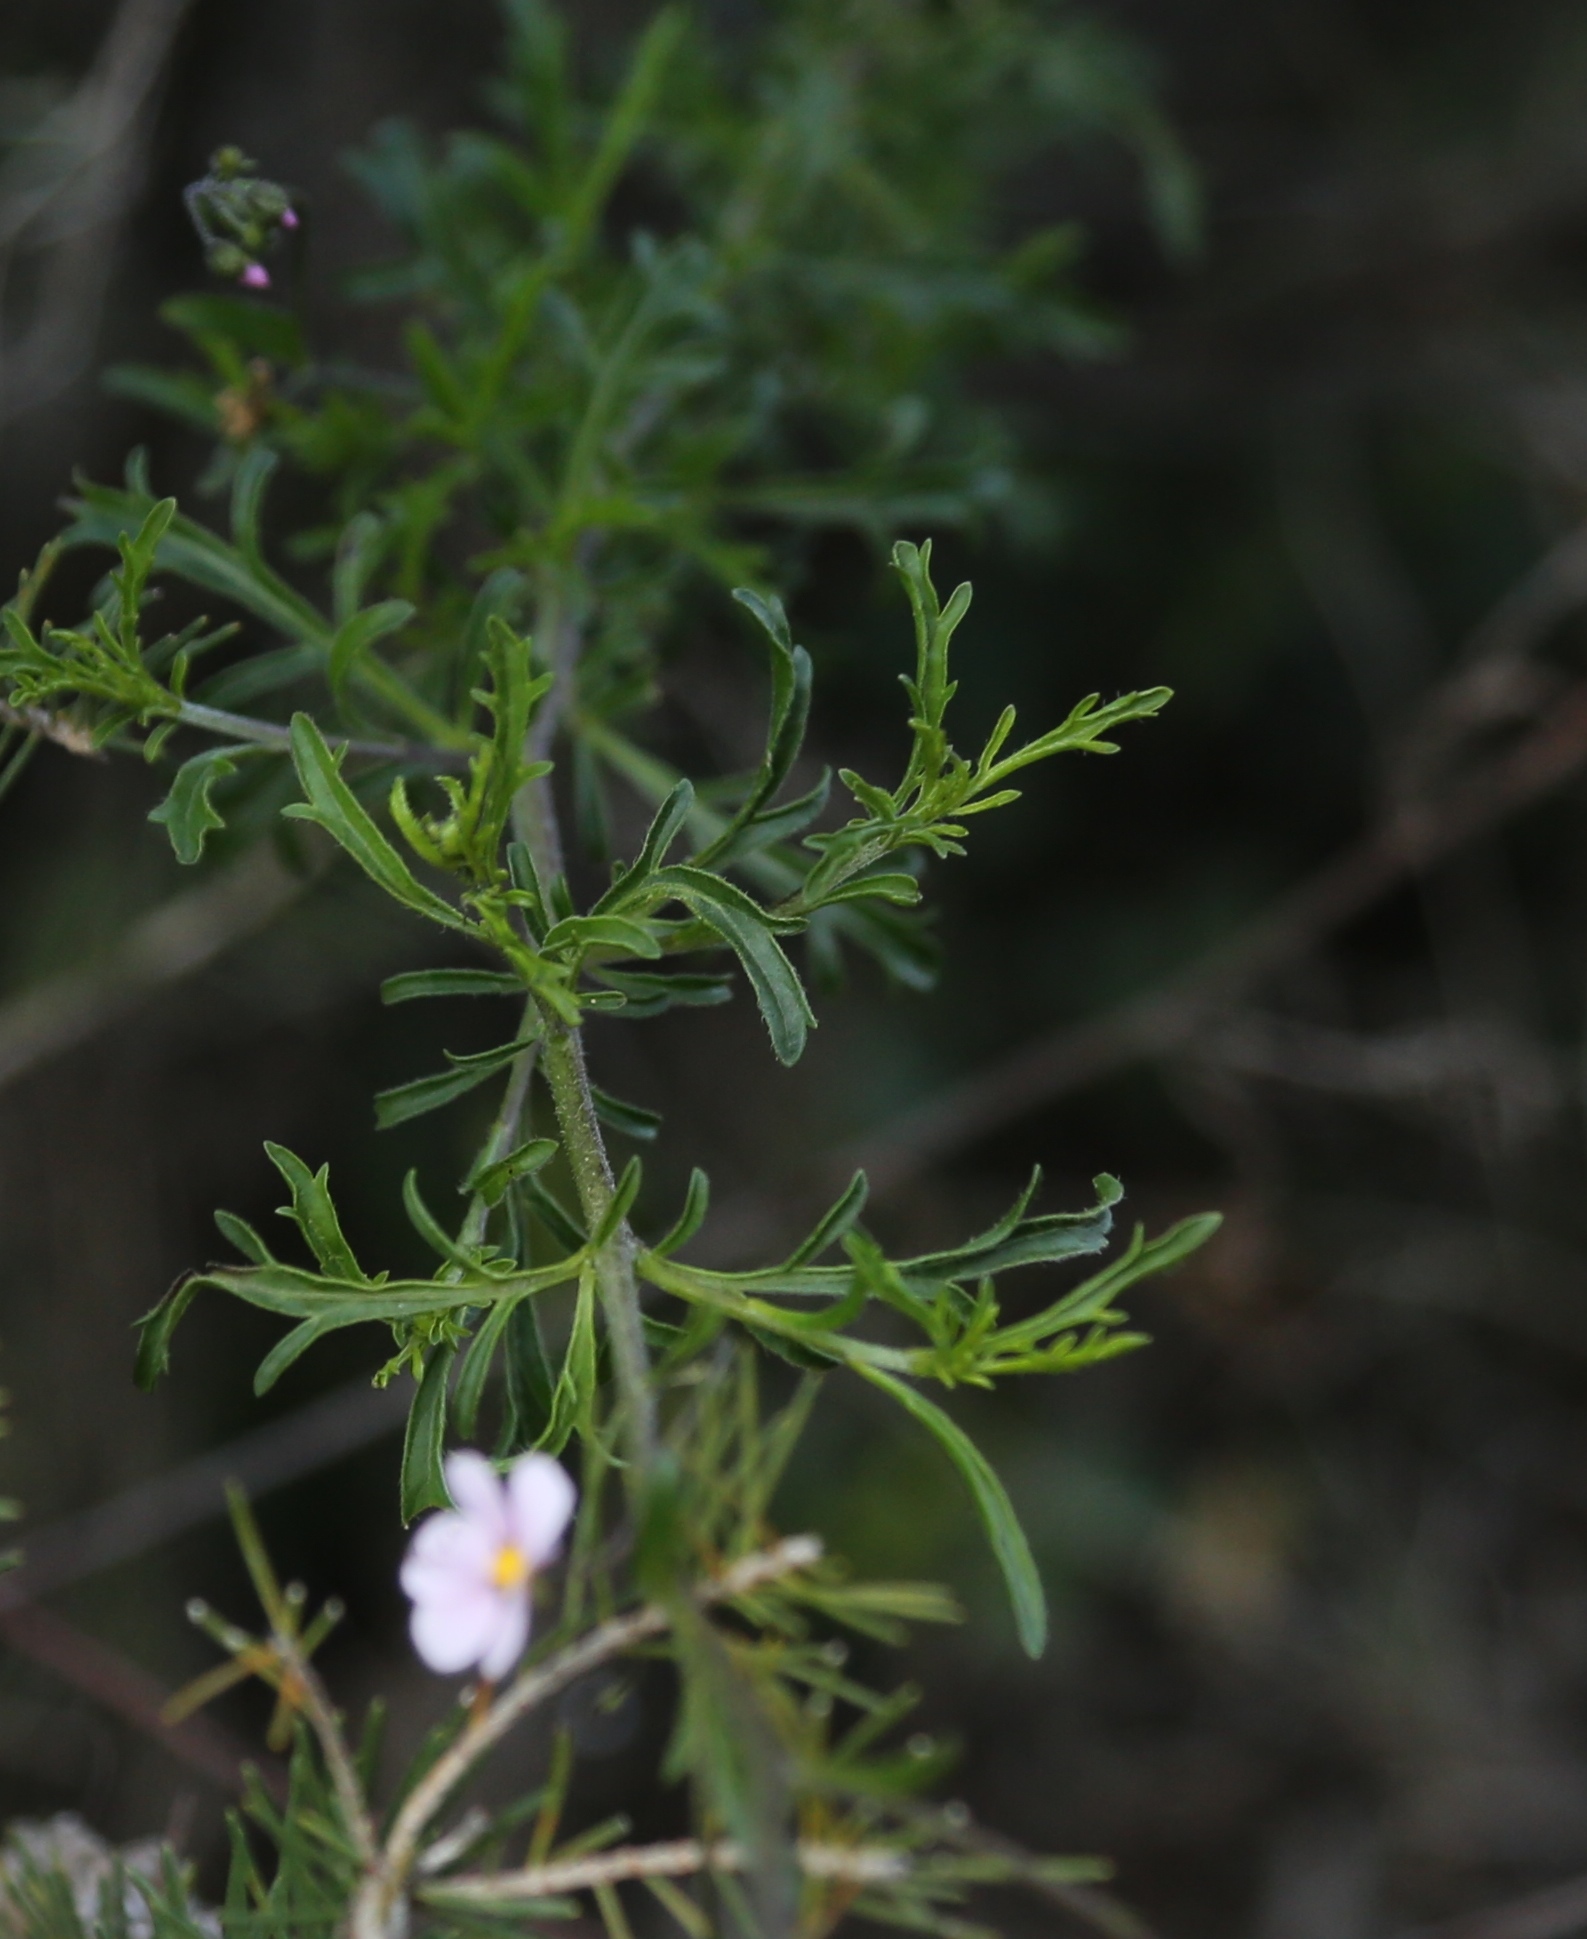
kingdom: Plantae
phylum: Tracheophyta
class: Magnoliopsida
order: Sapindales
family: Sapindaceae
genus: Diplopeltis
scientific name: Diplopeltis huegelii
